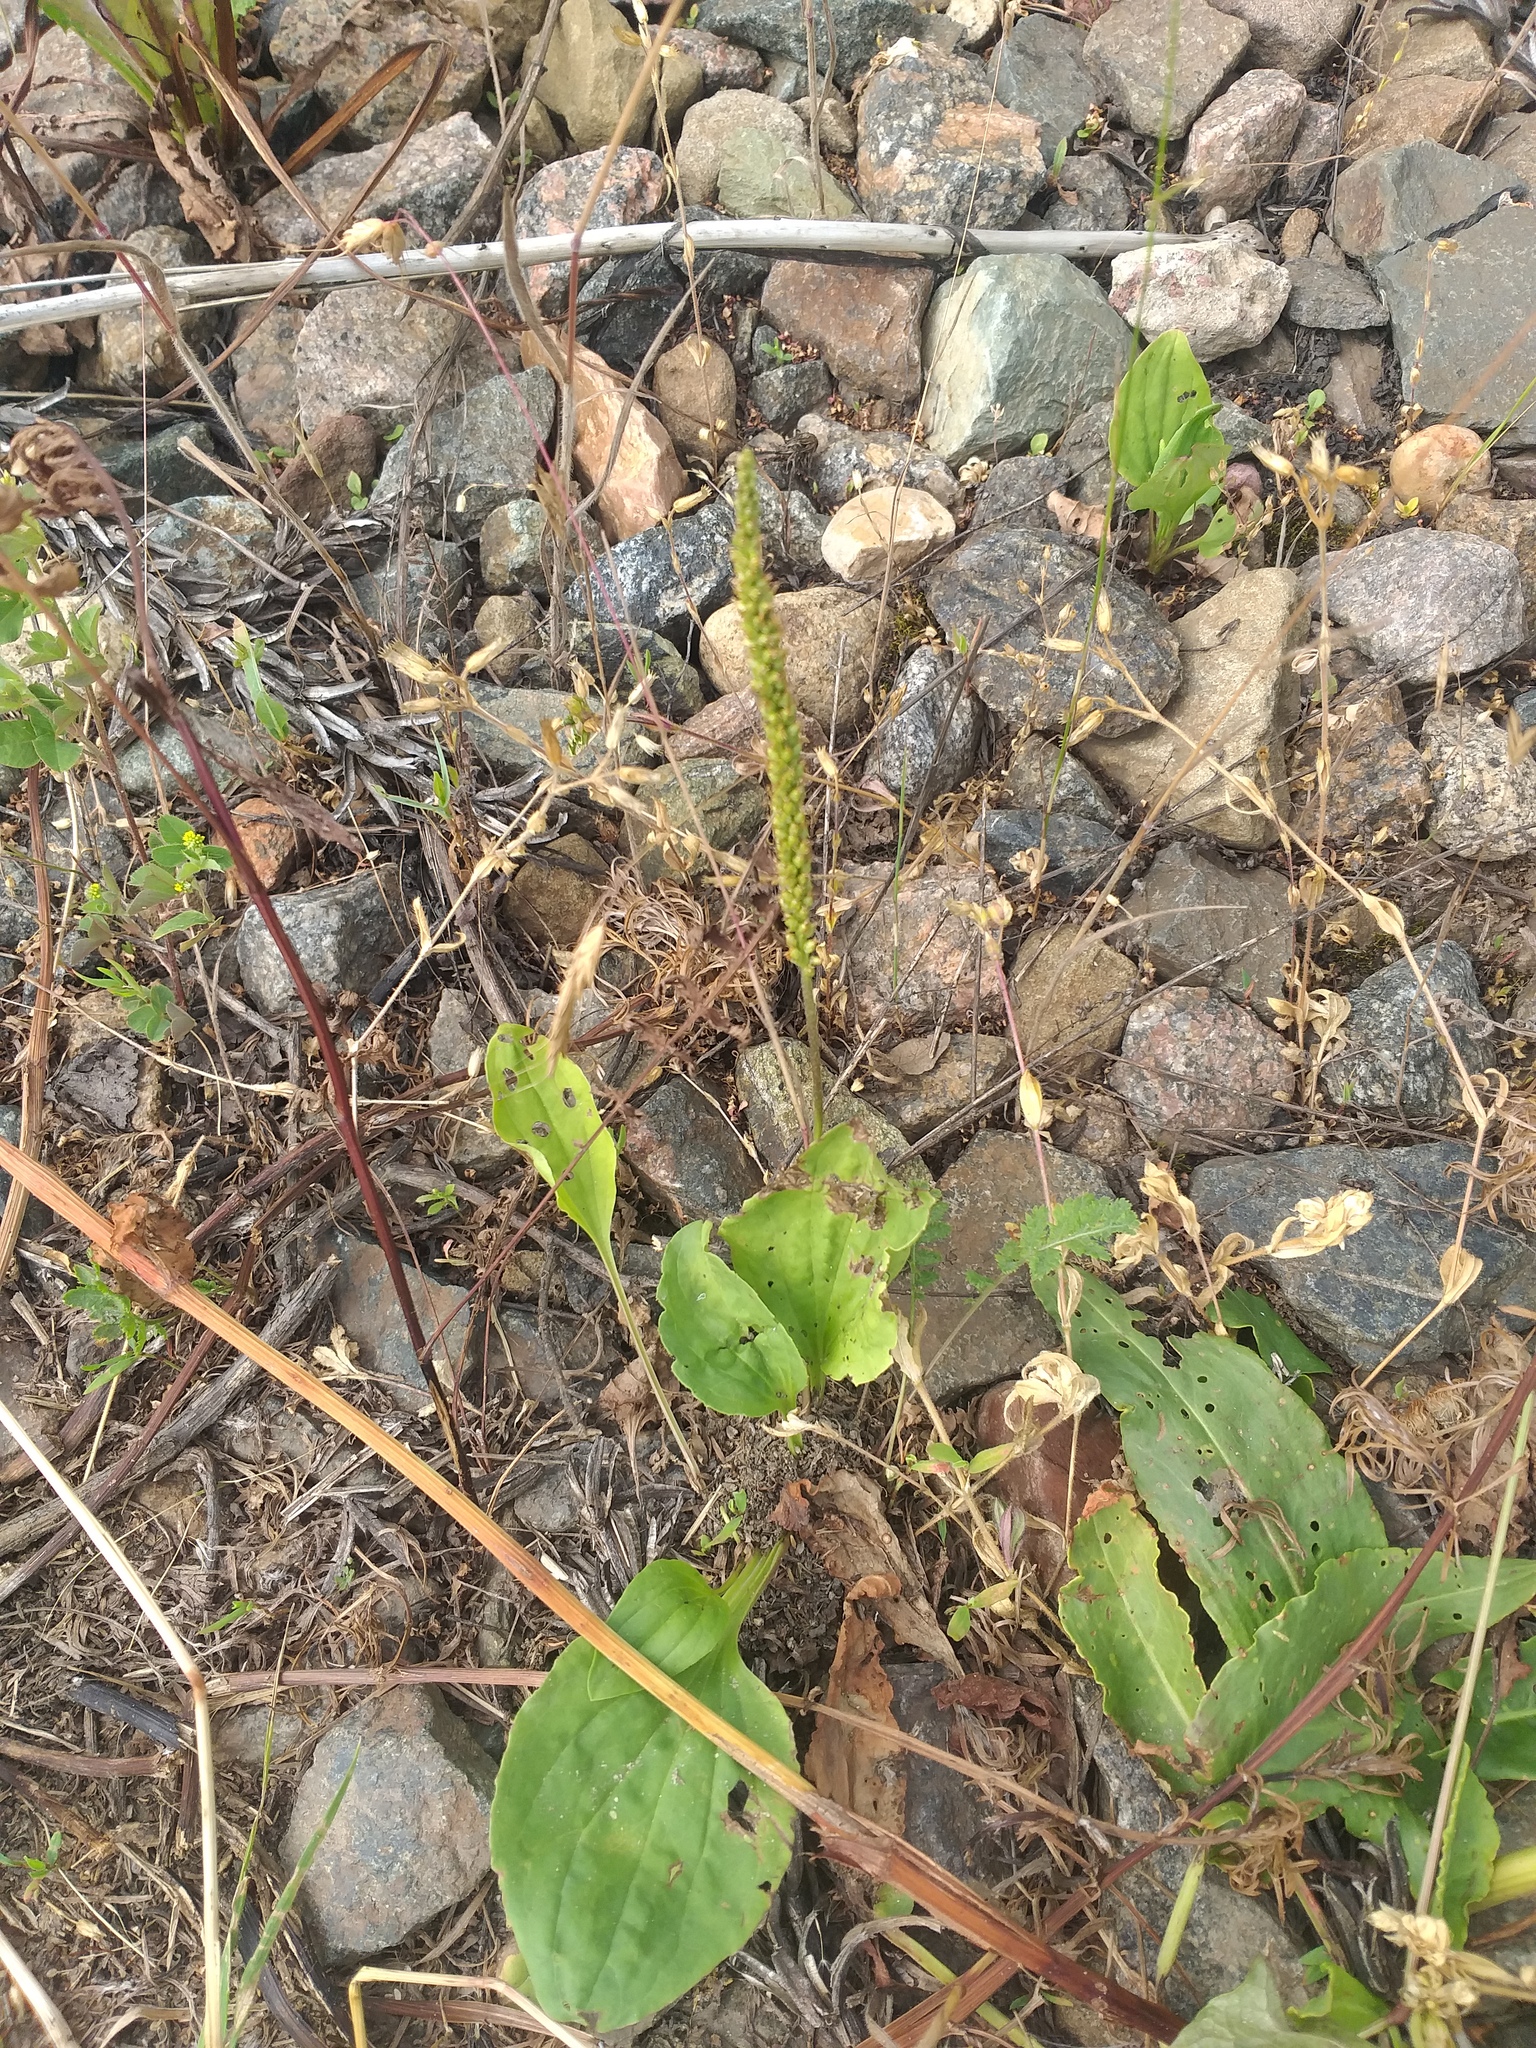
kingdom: Plantae
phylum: Tracheophyta
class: Magnoliopsida
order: Lamiales
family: Plantaginaceae
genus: Plantago
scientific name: Plantago major
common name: Common plantain
